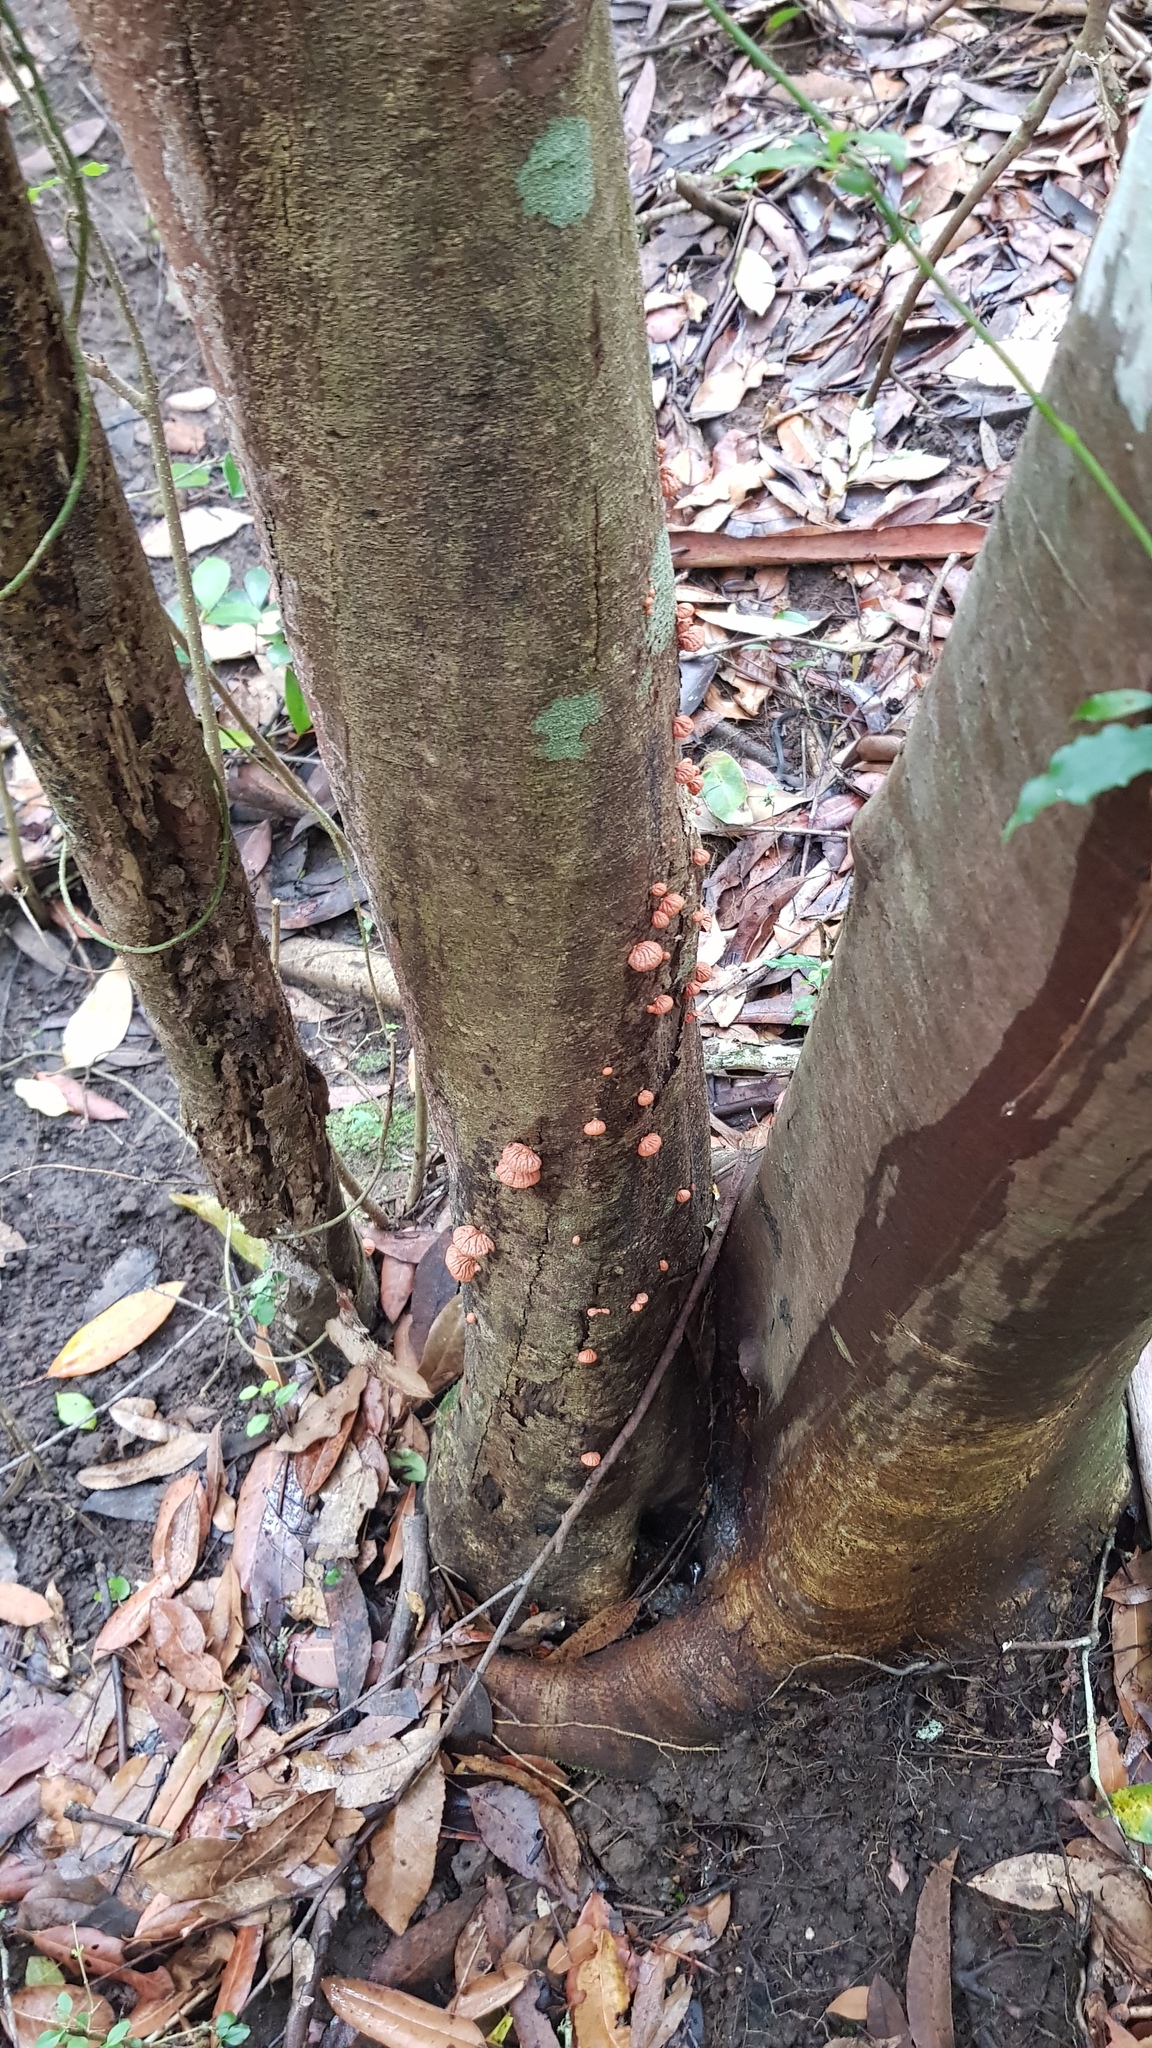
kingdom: Fungi
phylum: Basidiomycota
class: Agaricomycetes
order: Agaricales
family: Omphalotaceae
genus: Anthracophyllum
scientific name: Anthracophyllum archeri
